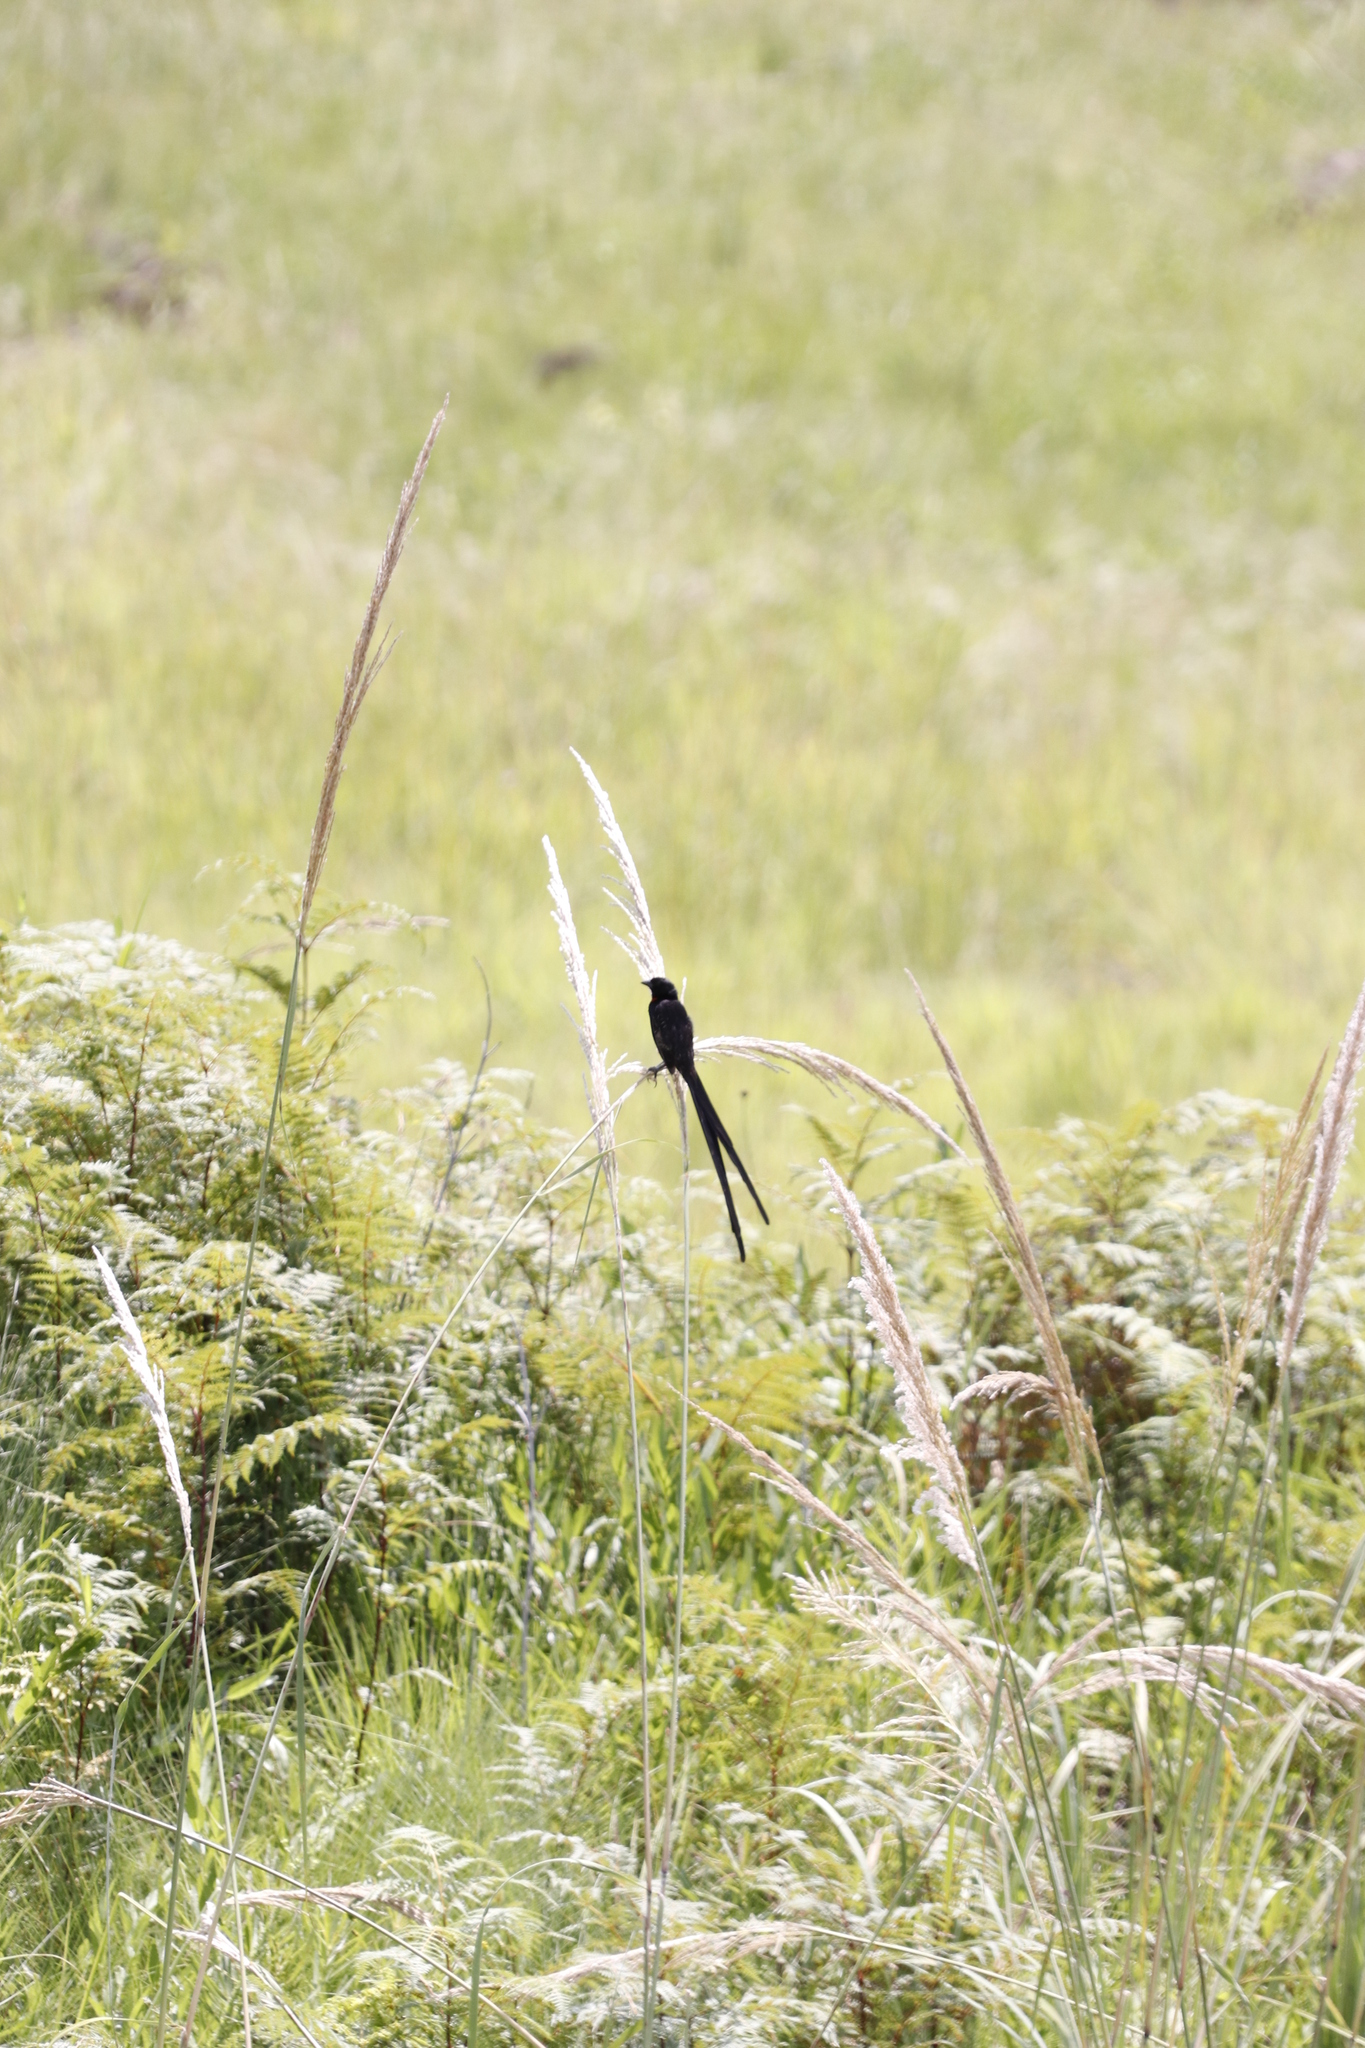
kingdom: Animalia
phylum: Chordata
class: Aves
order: Passeriformes
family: Ploceidae
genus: Euplectes
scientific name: Euplectes ardens
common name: Red-collared widowbird
